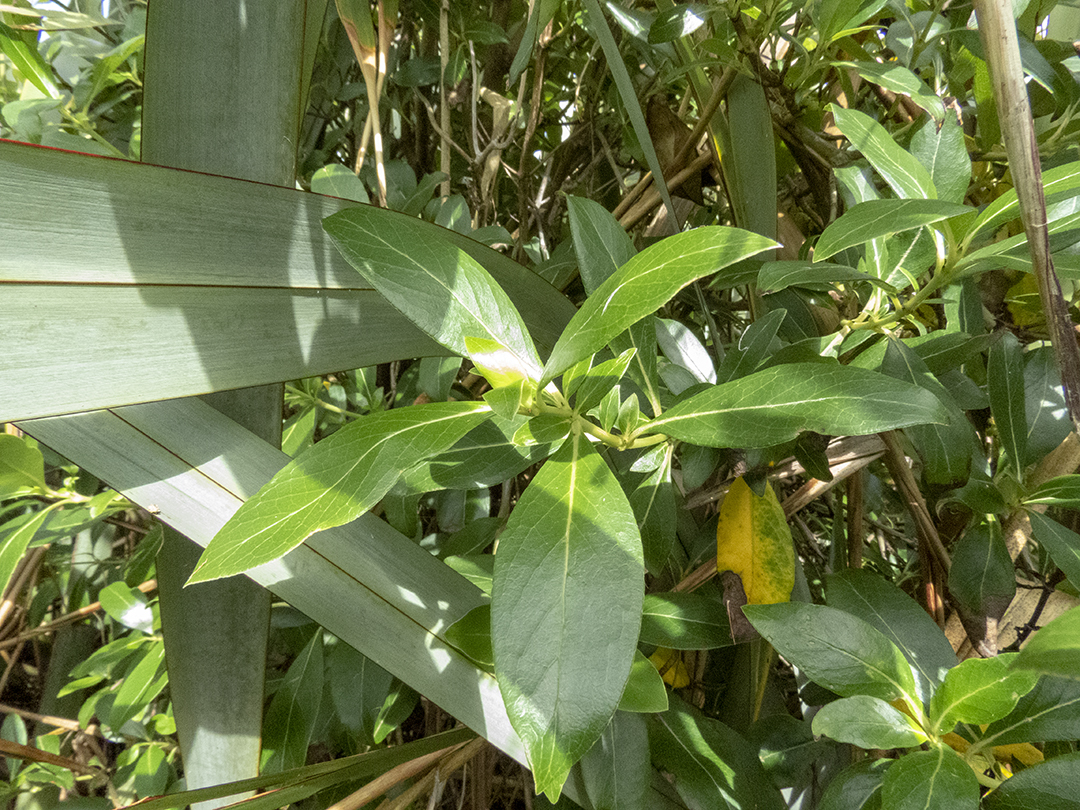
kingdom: Plantae
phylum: Tracheophyta
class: Magnoliopsida
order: Gentianales
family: Rubiaceae
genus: Coprosma
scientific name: Coprosma robusta
